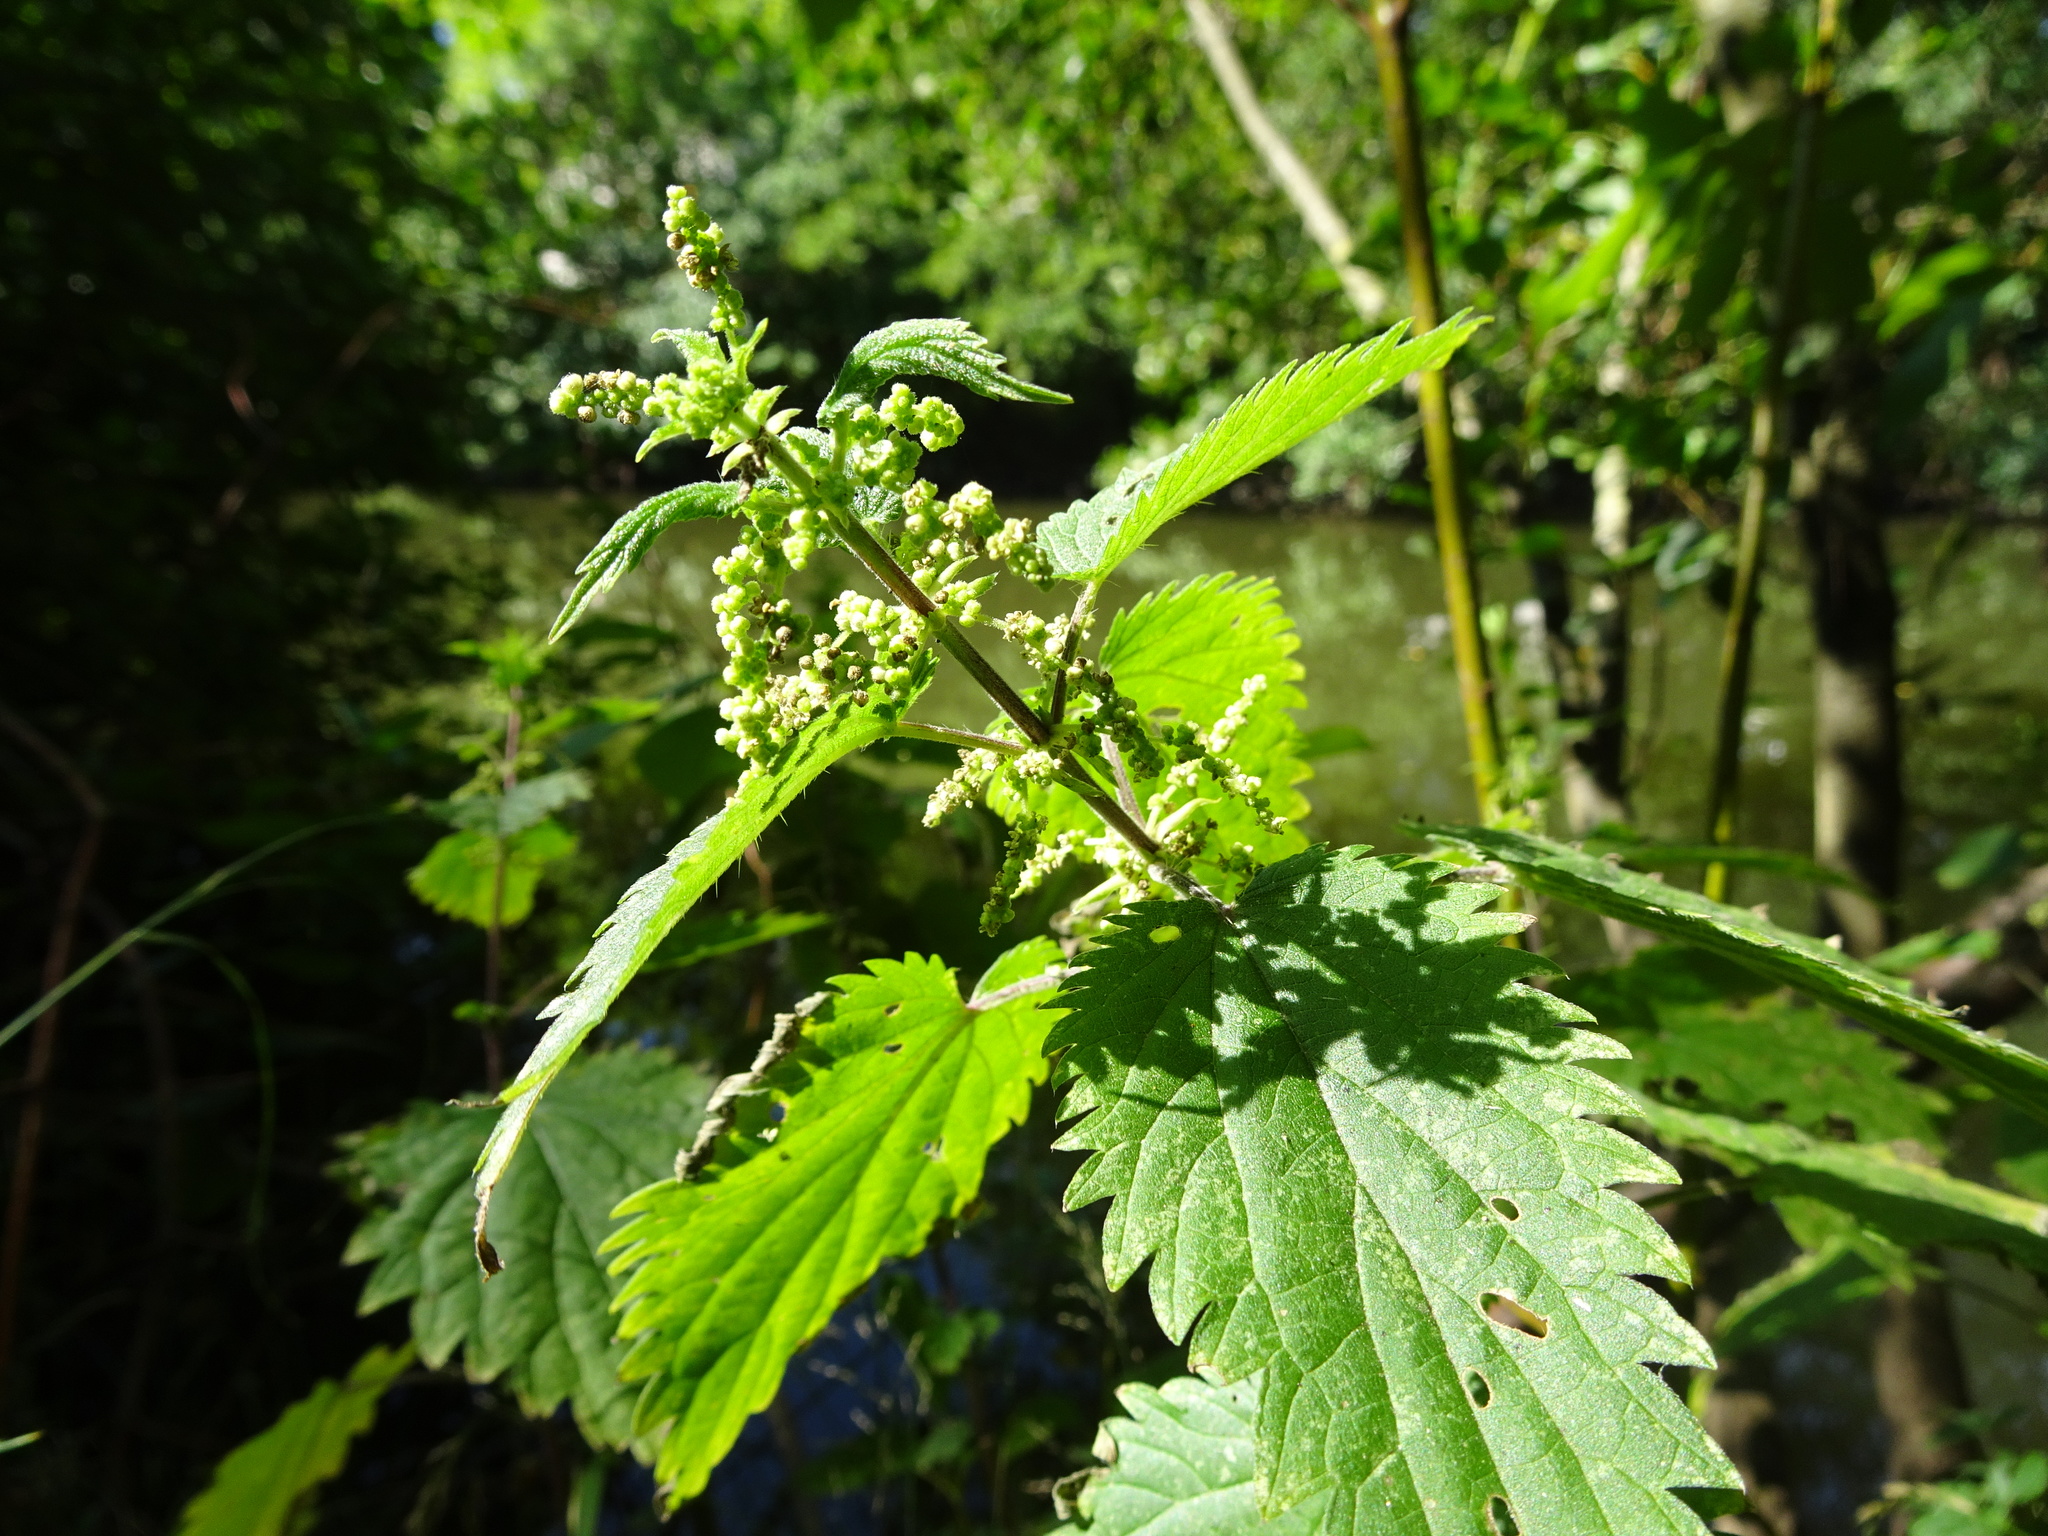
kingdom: Plantae
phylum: Tracheophyta
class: Magnoliopsida
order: Rosales
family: Urticaceae
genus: Urtica
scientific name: Urtica dioica
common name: Common nettle
